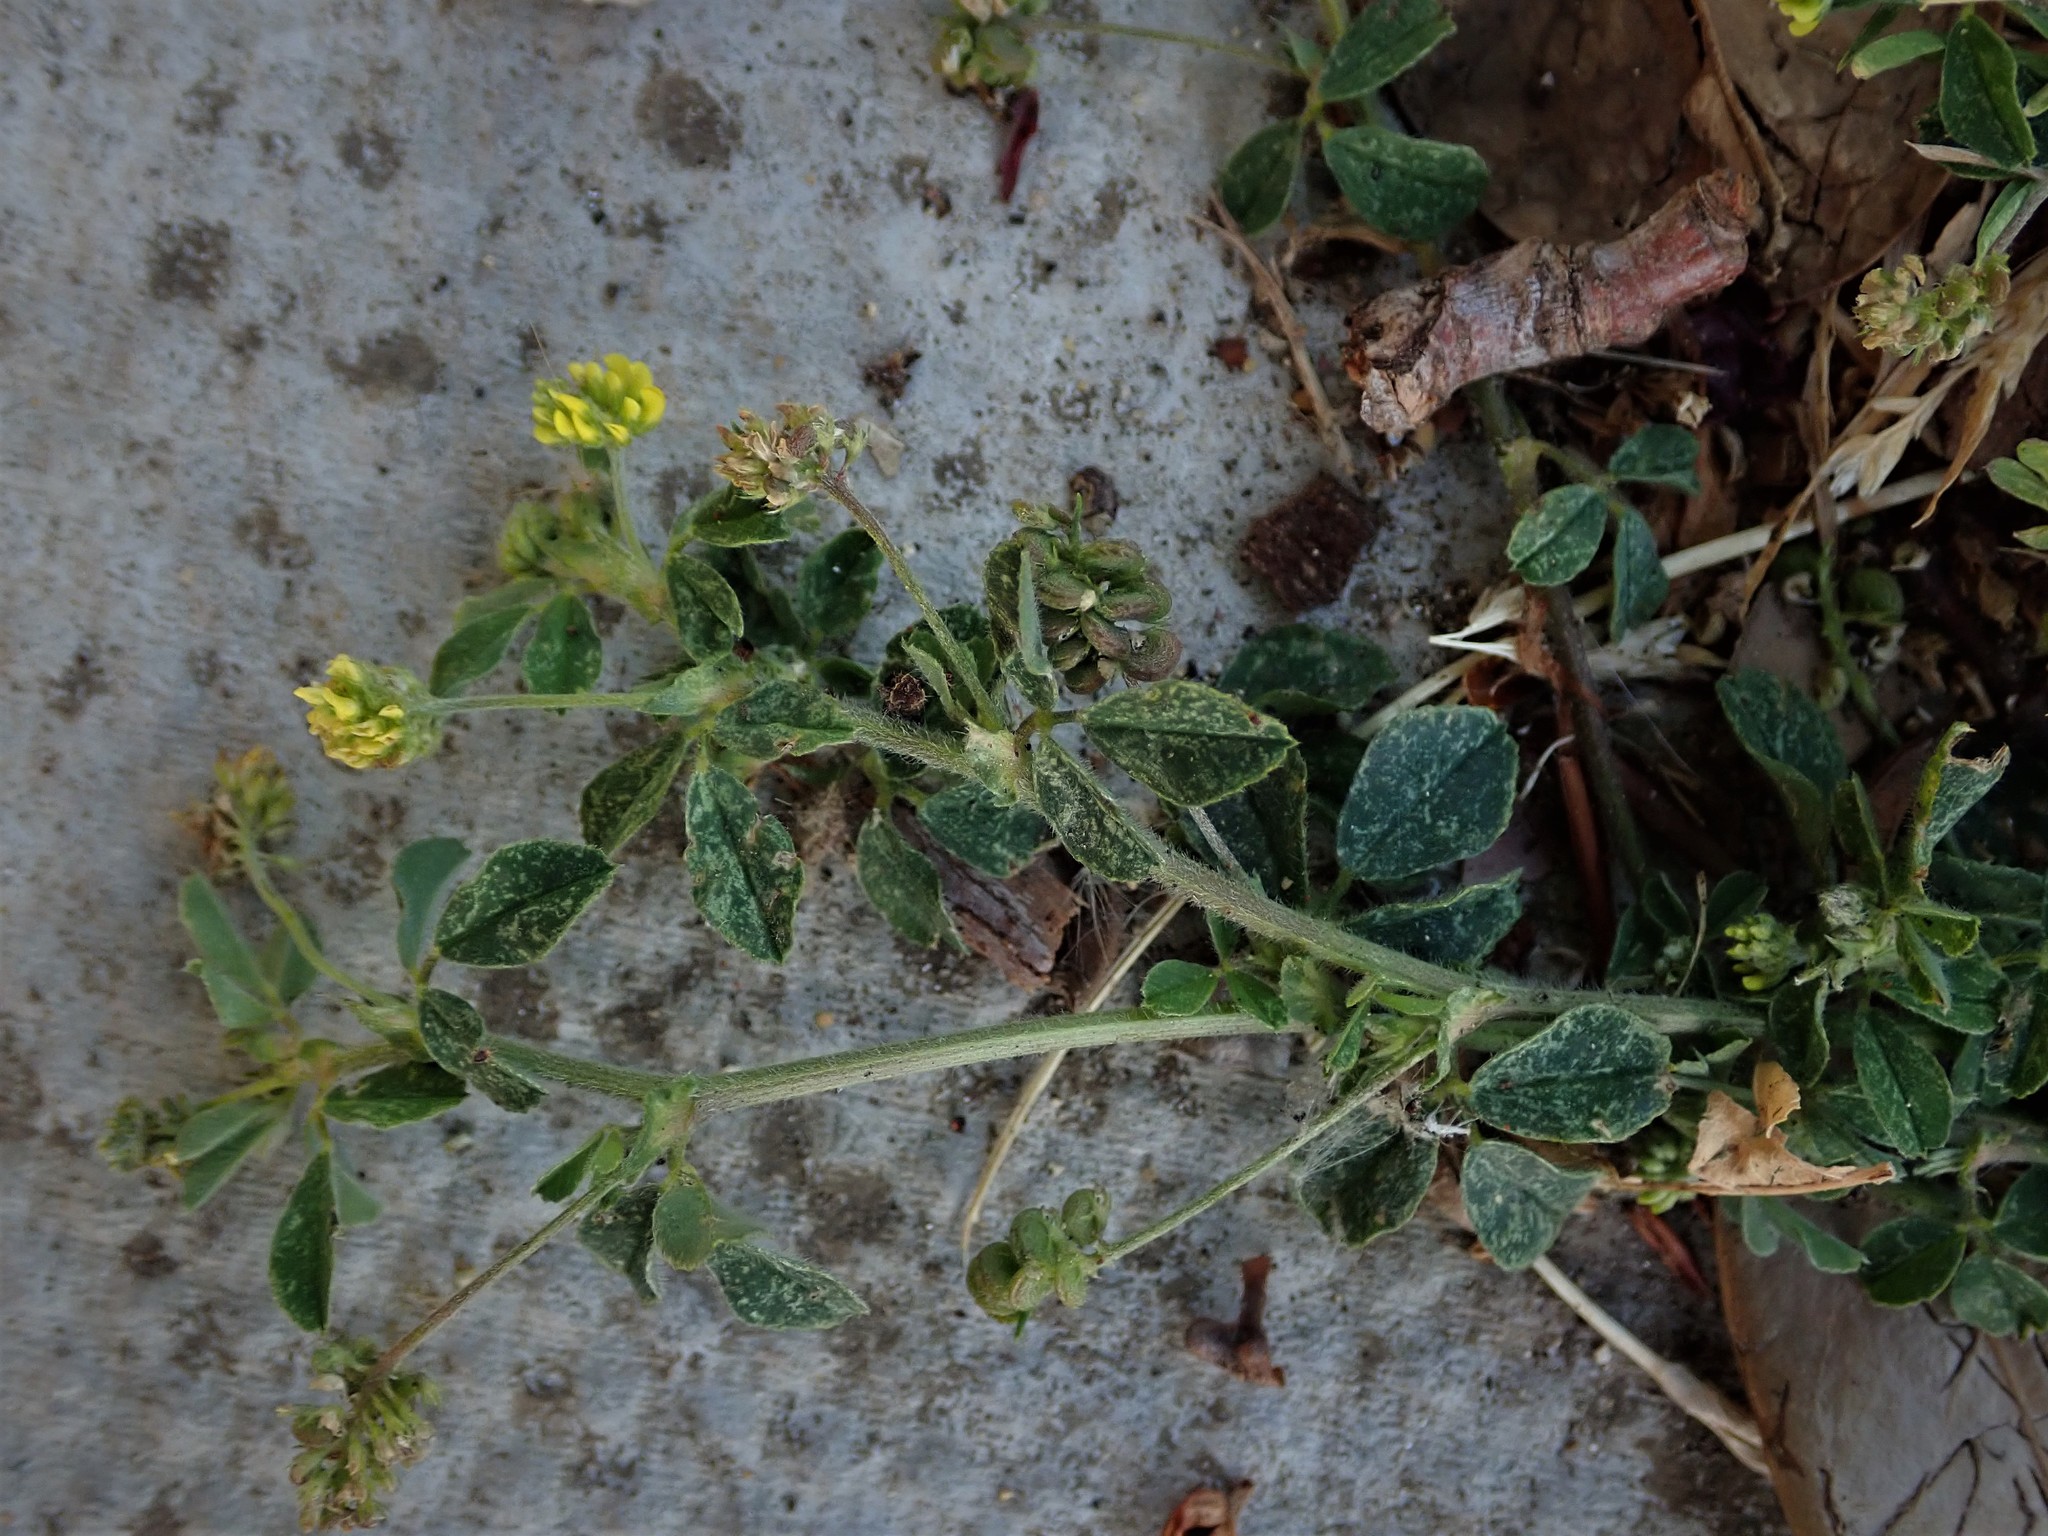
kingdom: Plantae
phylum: Tracheophyta
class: Magnoliopsida
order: Fabales
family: Fabaceae
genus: Medicago
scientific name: Medicago lupulina
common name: Black medick
